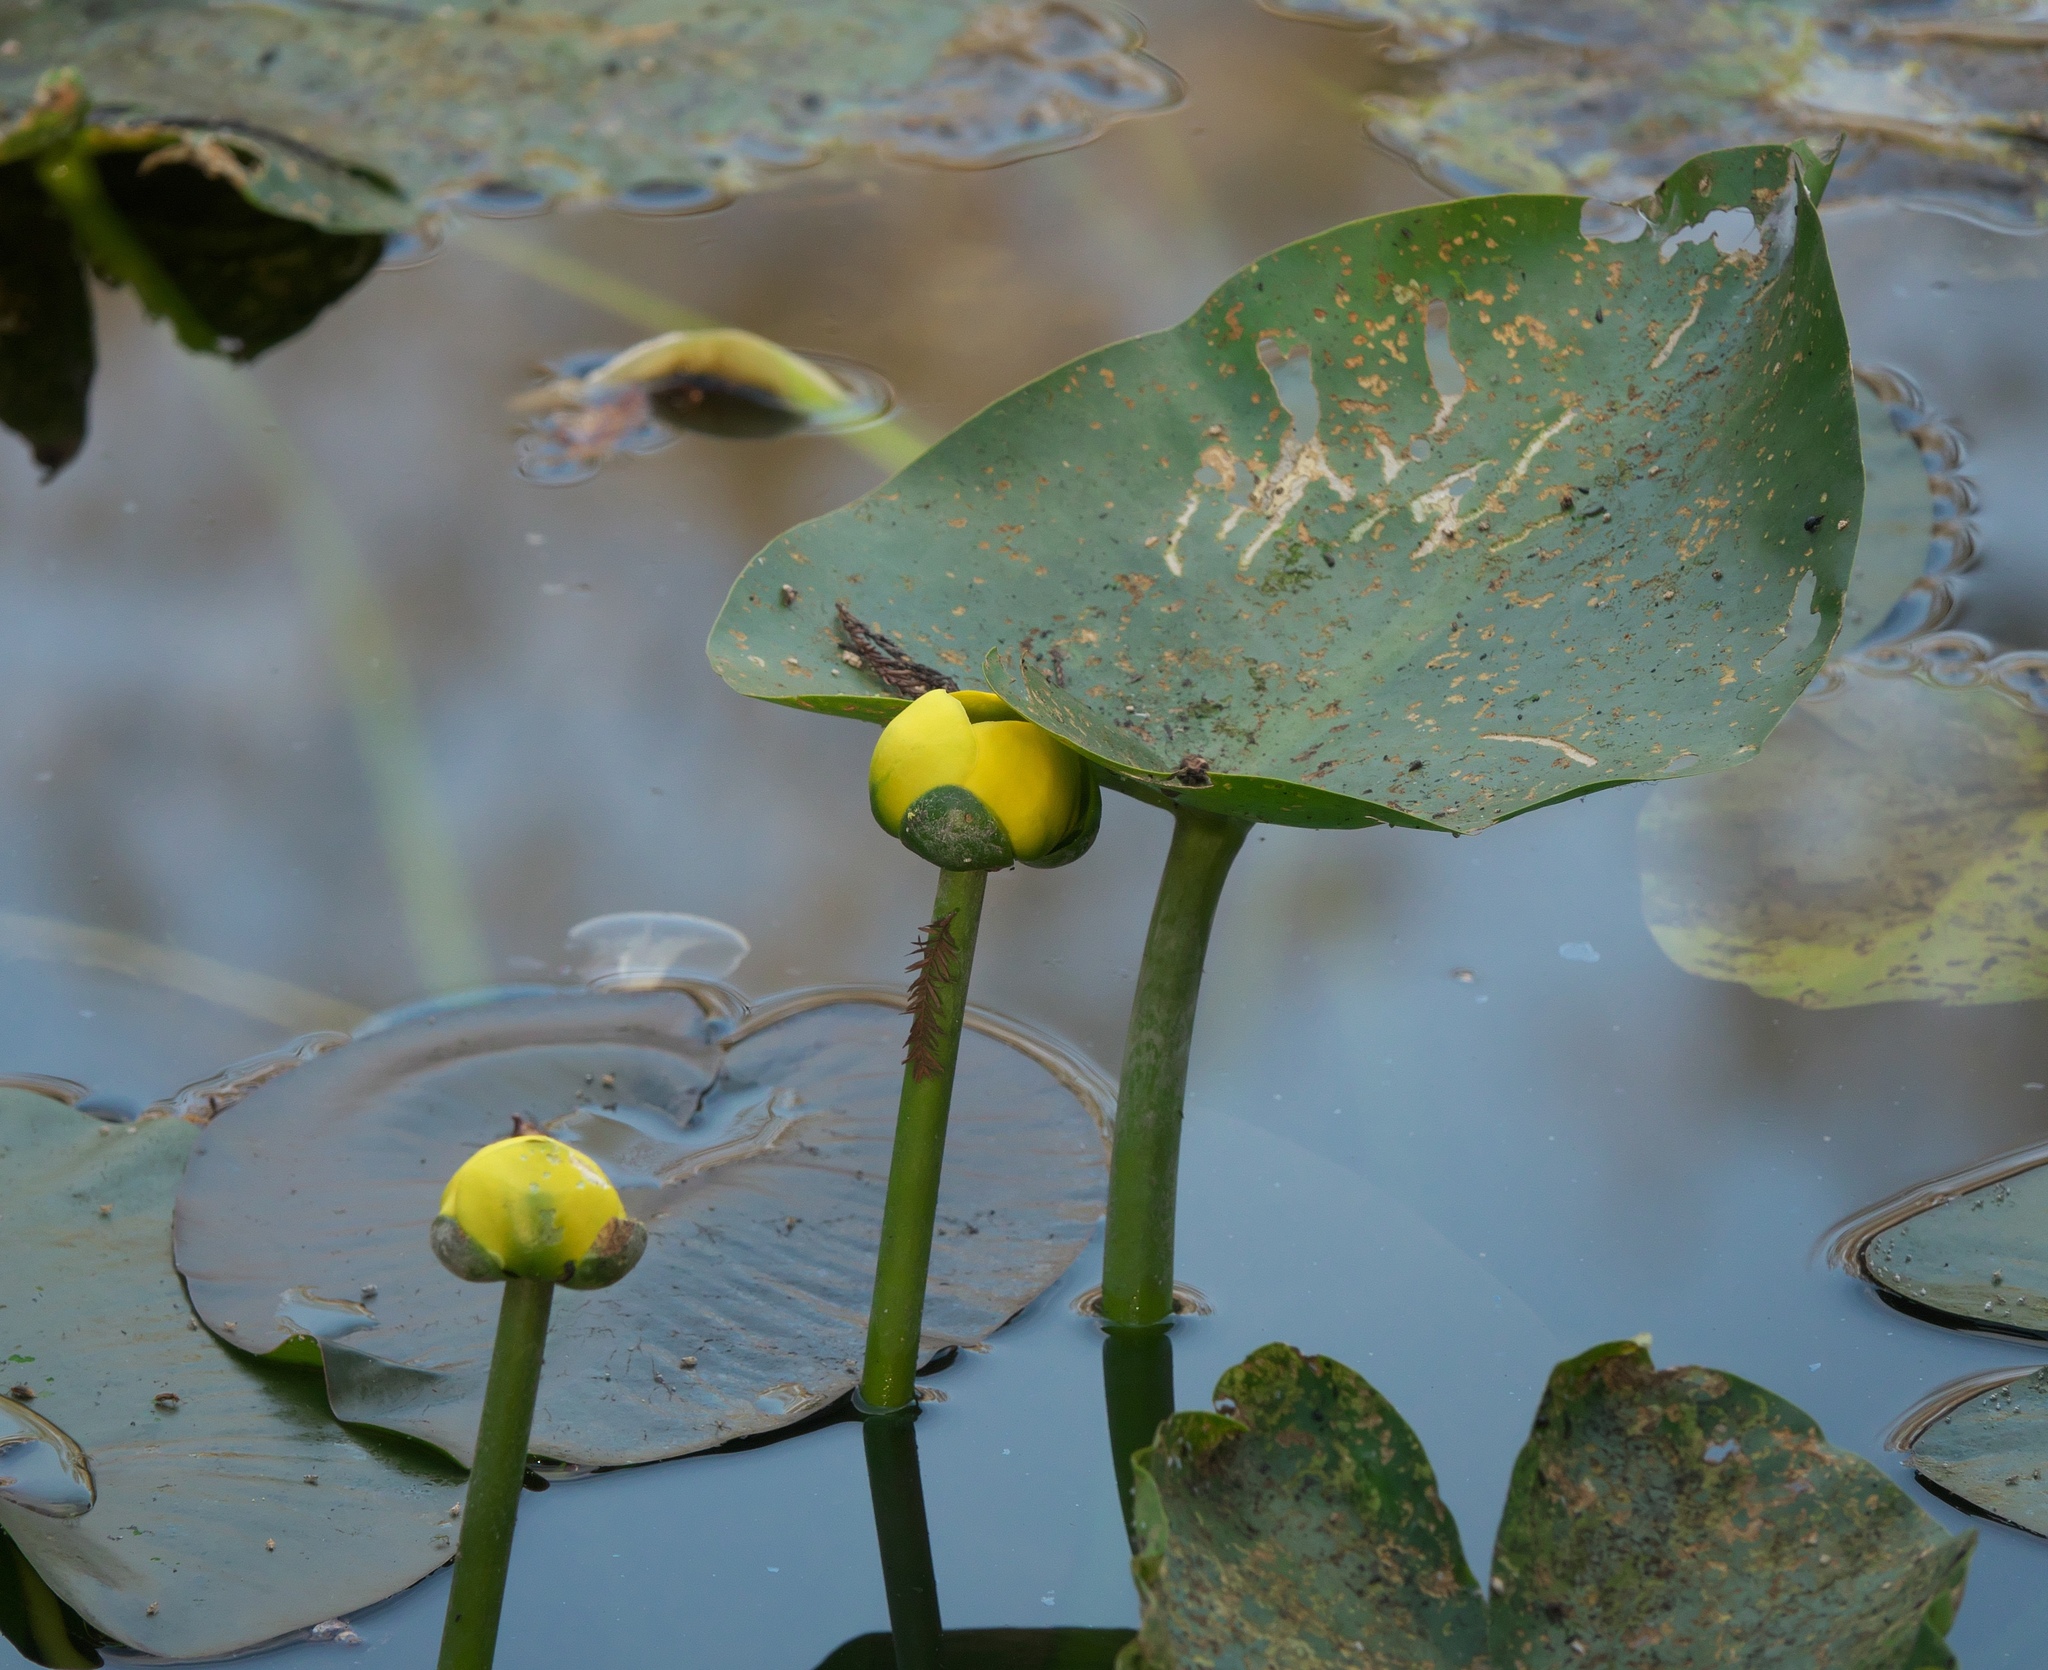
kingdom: Plantae
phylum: Tracheophyta
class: Magnoliopsida
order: Nymphaeales
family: Nymphaeaceae
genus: Nuphar
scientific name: Nuphar advena
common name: Spatter-dock
